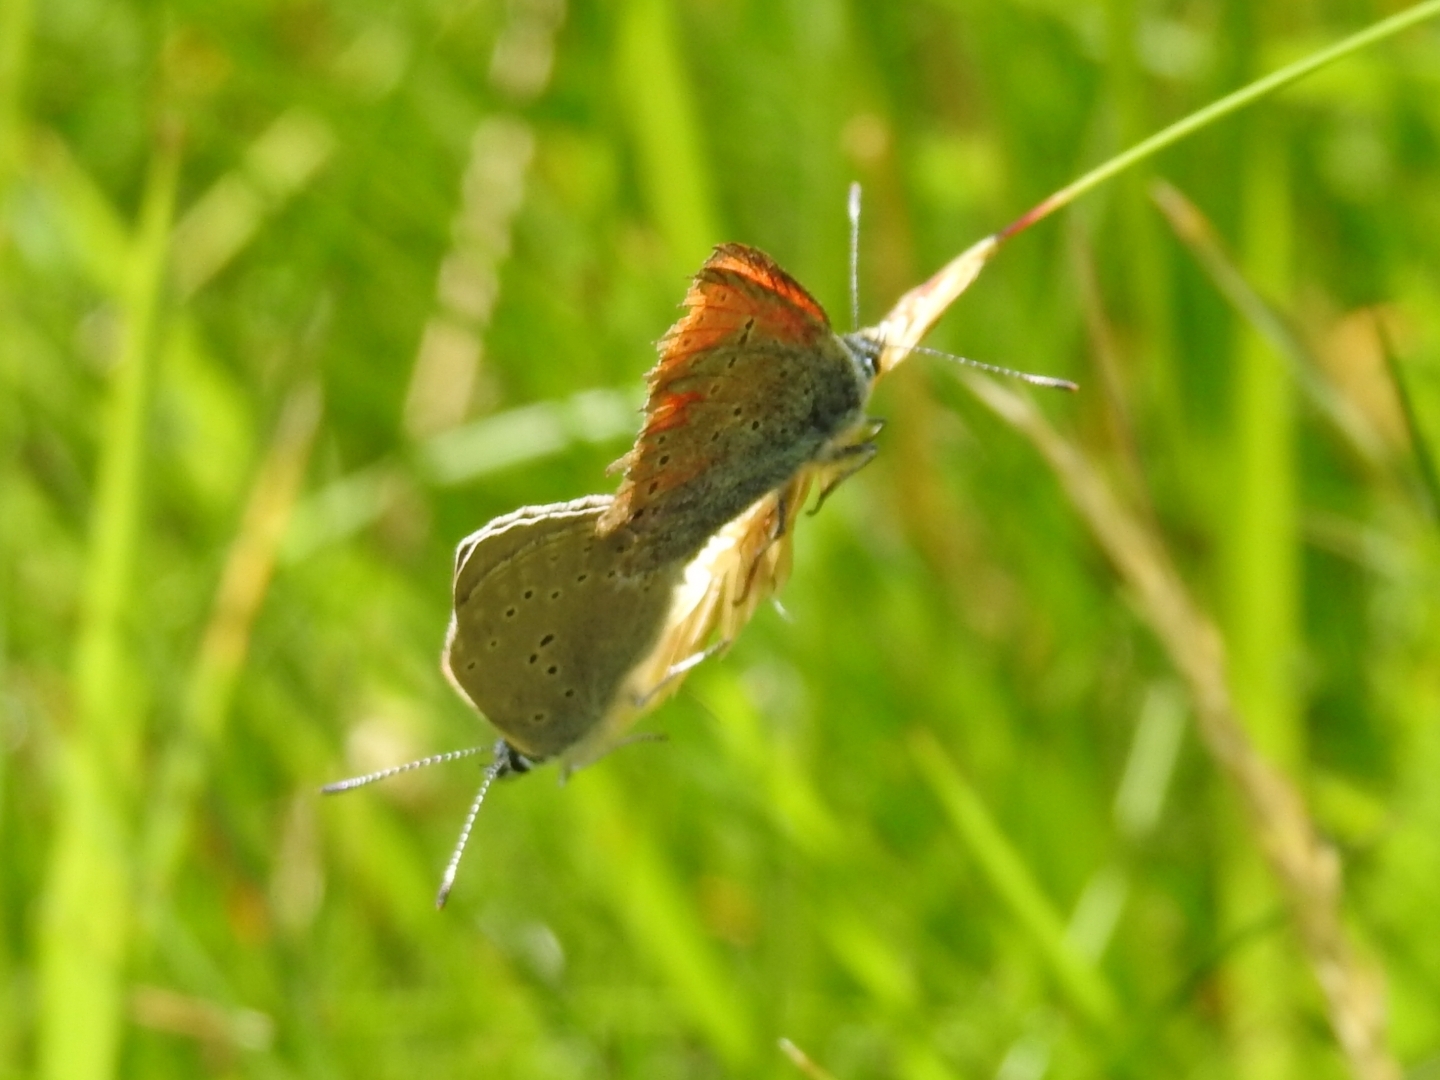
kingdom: Animalia
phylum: Arthropoda
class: Insecta
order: Lepidoptera
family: Lycaenidae
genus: Palaeochrysophanus
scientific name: Palaeochrysophanus hippothoe
